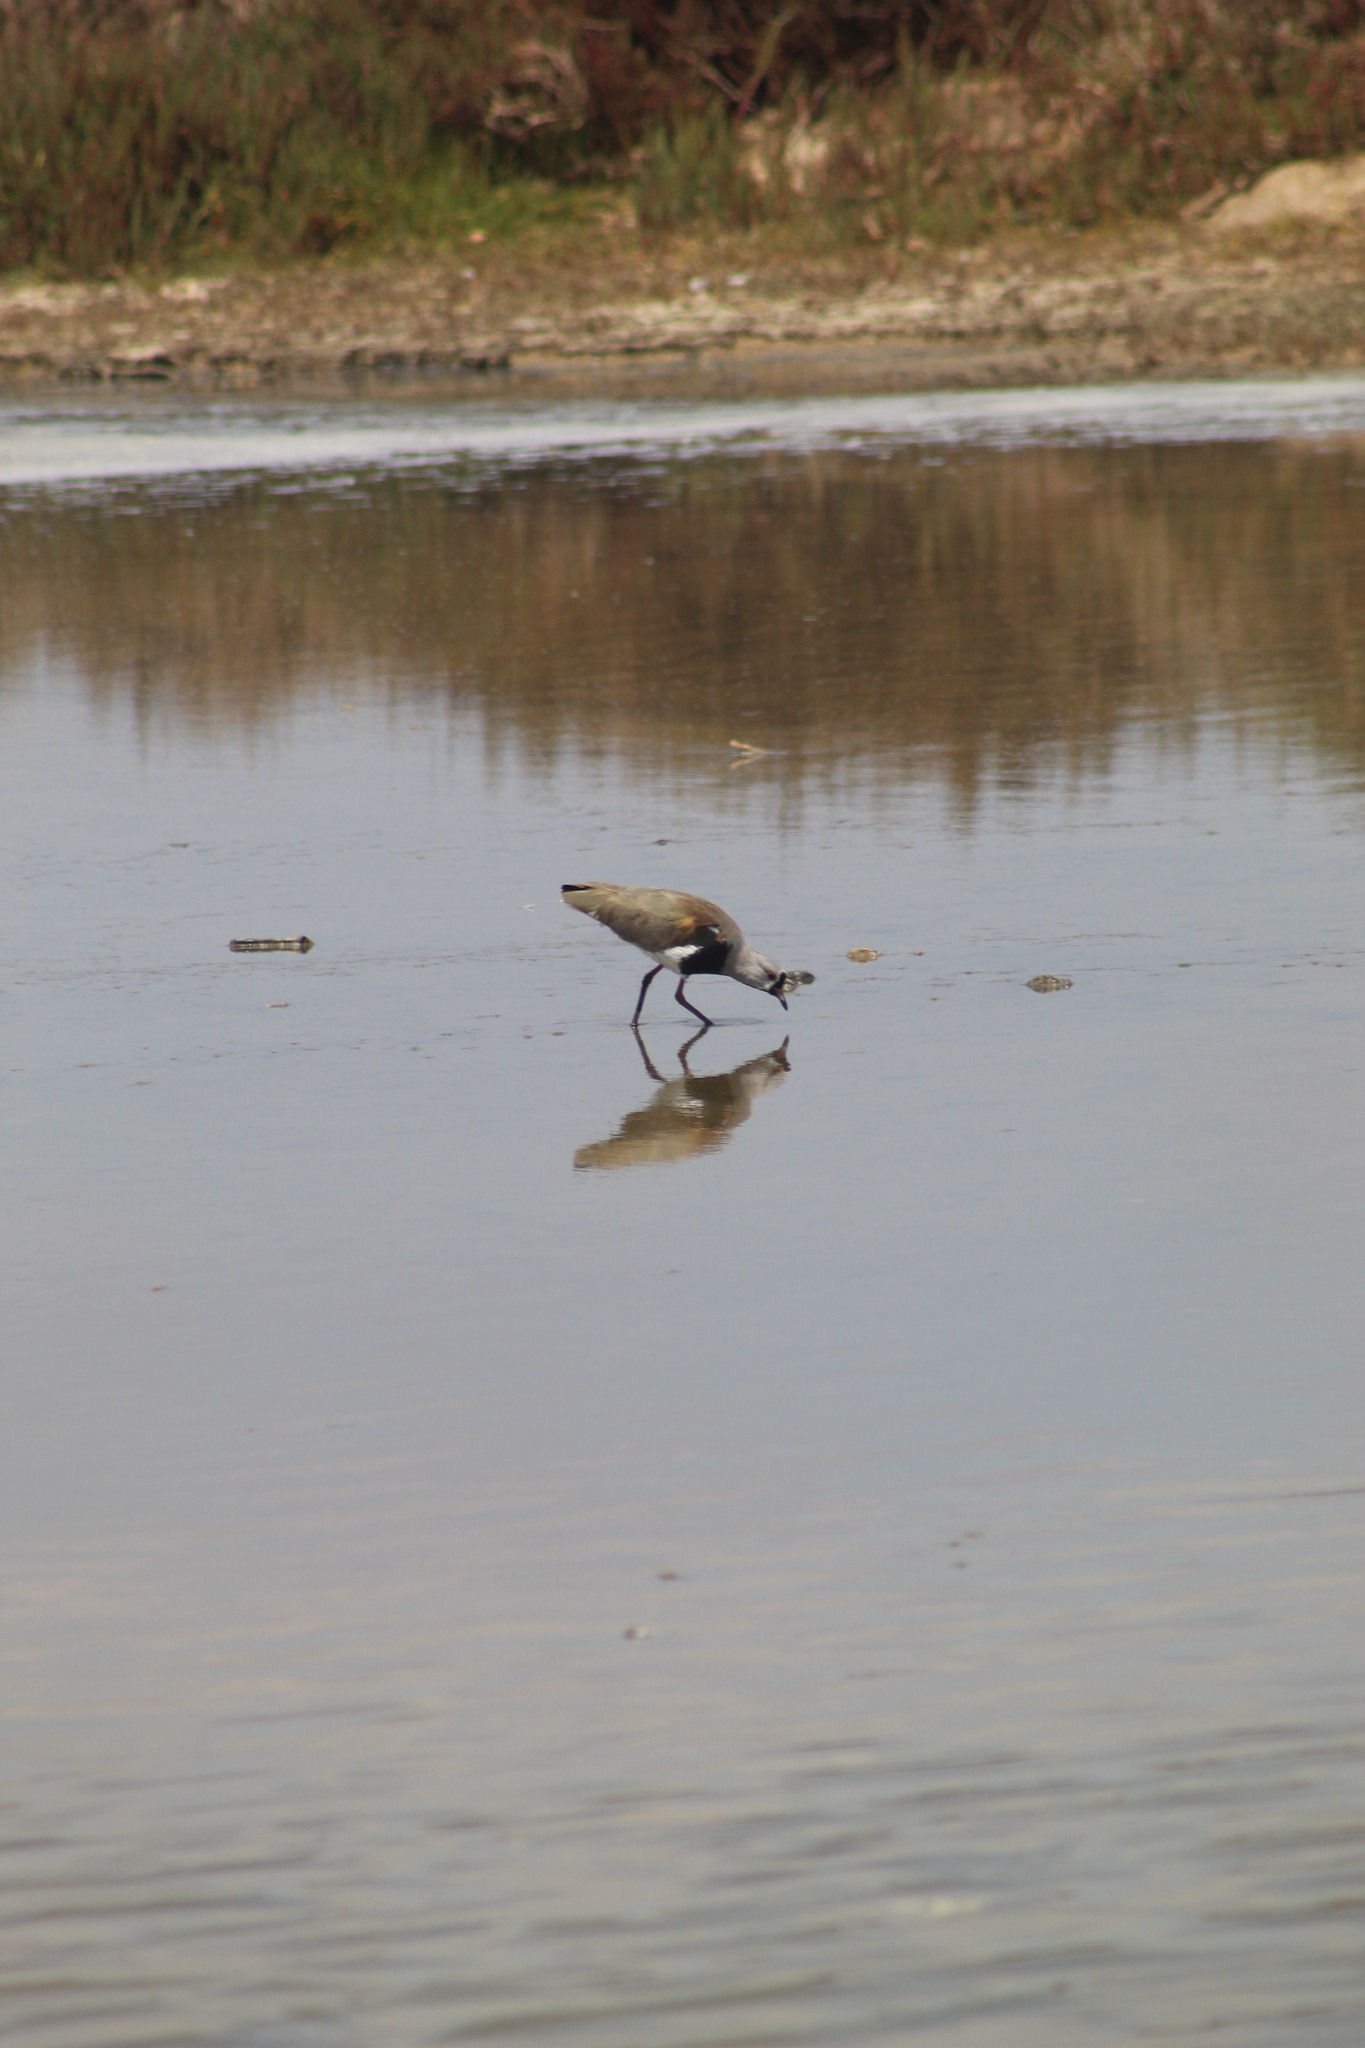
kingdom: Animalia
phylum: Chordata
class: Aves
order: Charadriiformes
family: Charadriidae
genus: Vanellus
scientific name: Vanellus chilensis
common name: Southern lapwing
